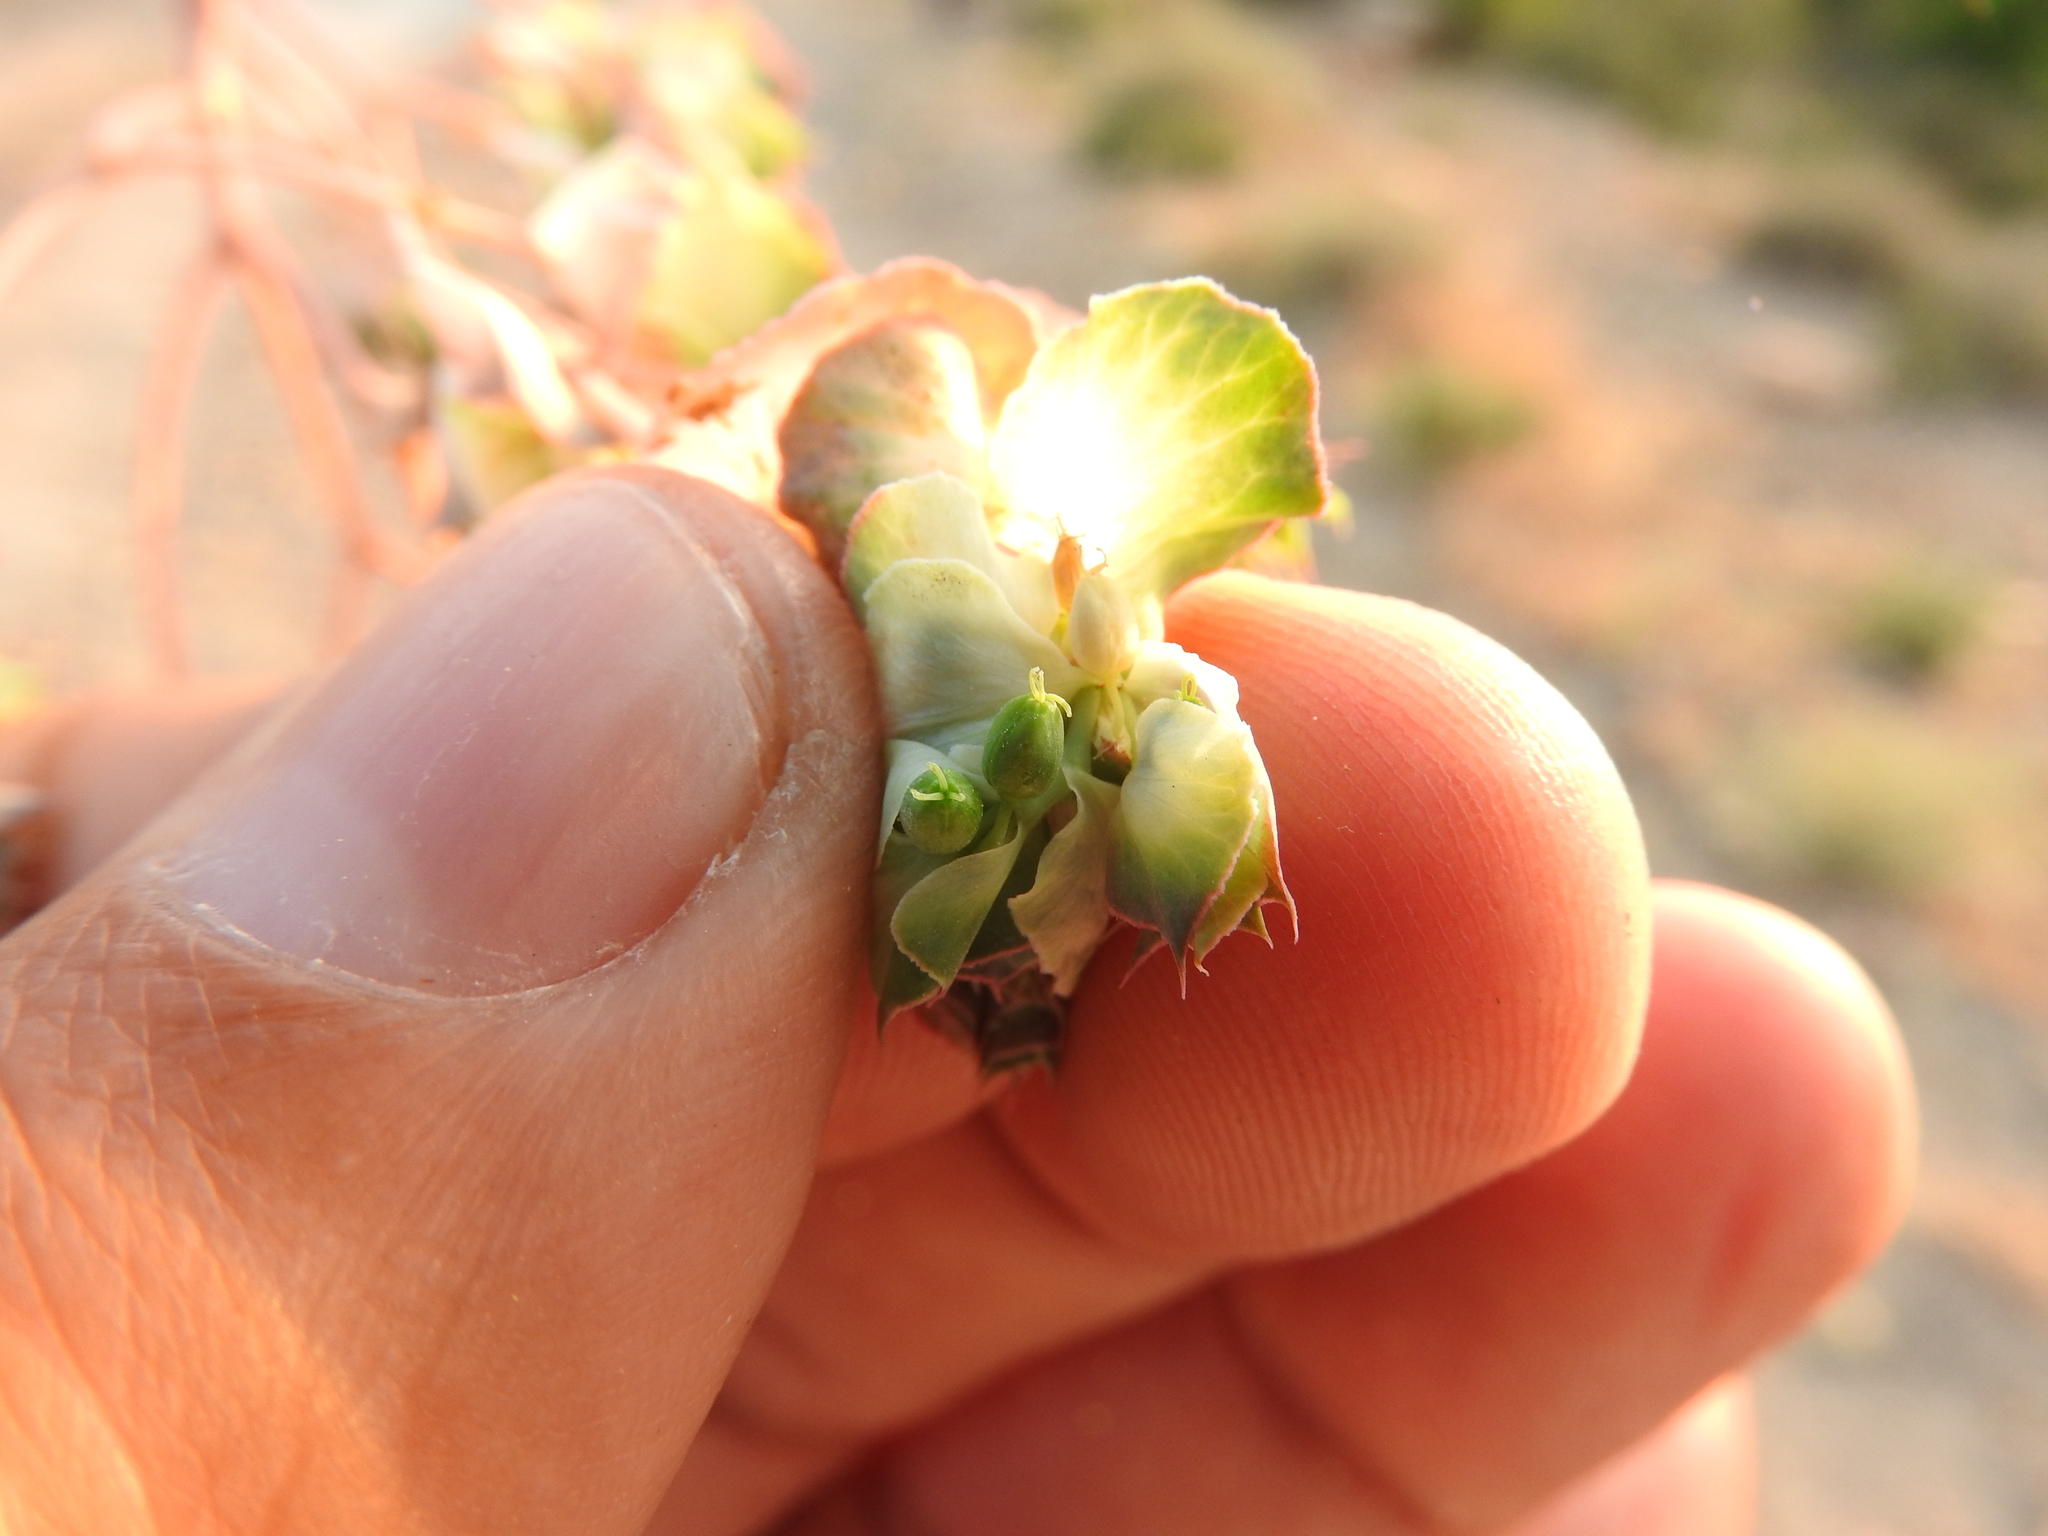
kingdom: Plantae
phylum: Tracheophyta
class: Magnoliopsida
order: Malpighiales
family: Euphorbiaceae
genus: Euphorbia
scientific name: Euphorbia hieroglyphica
